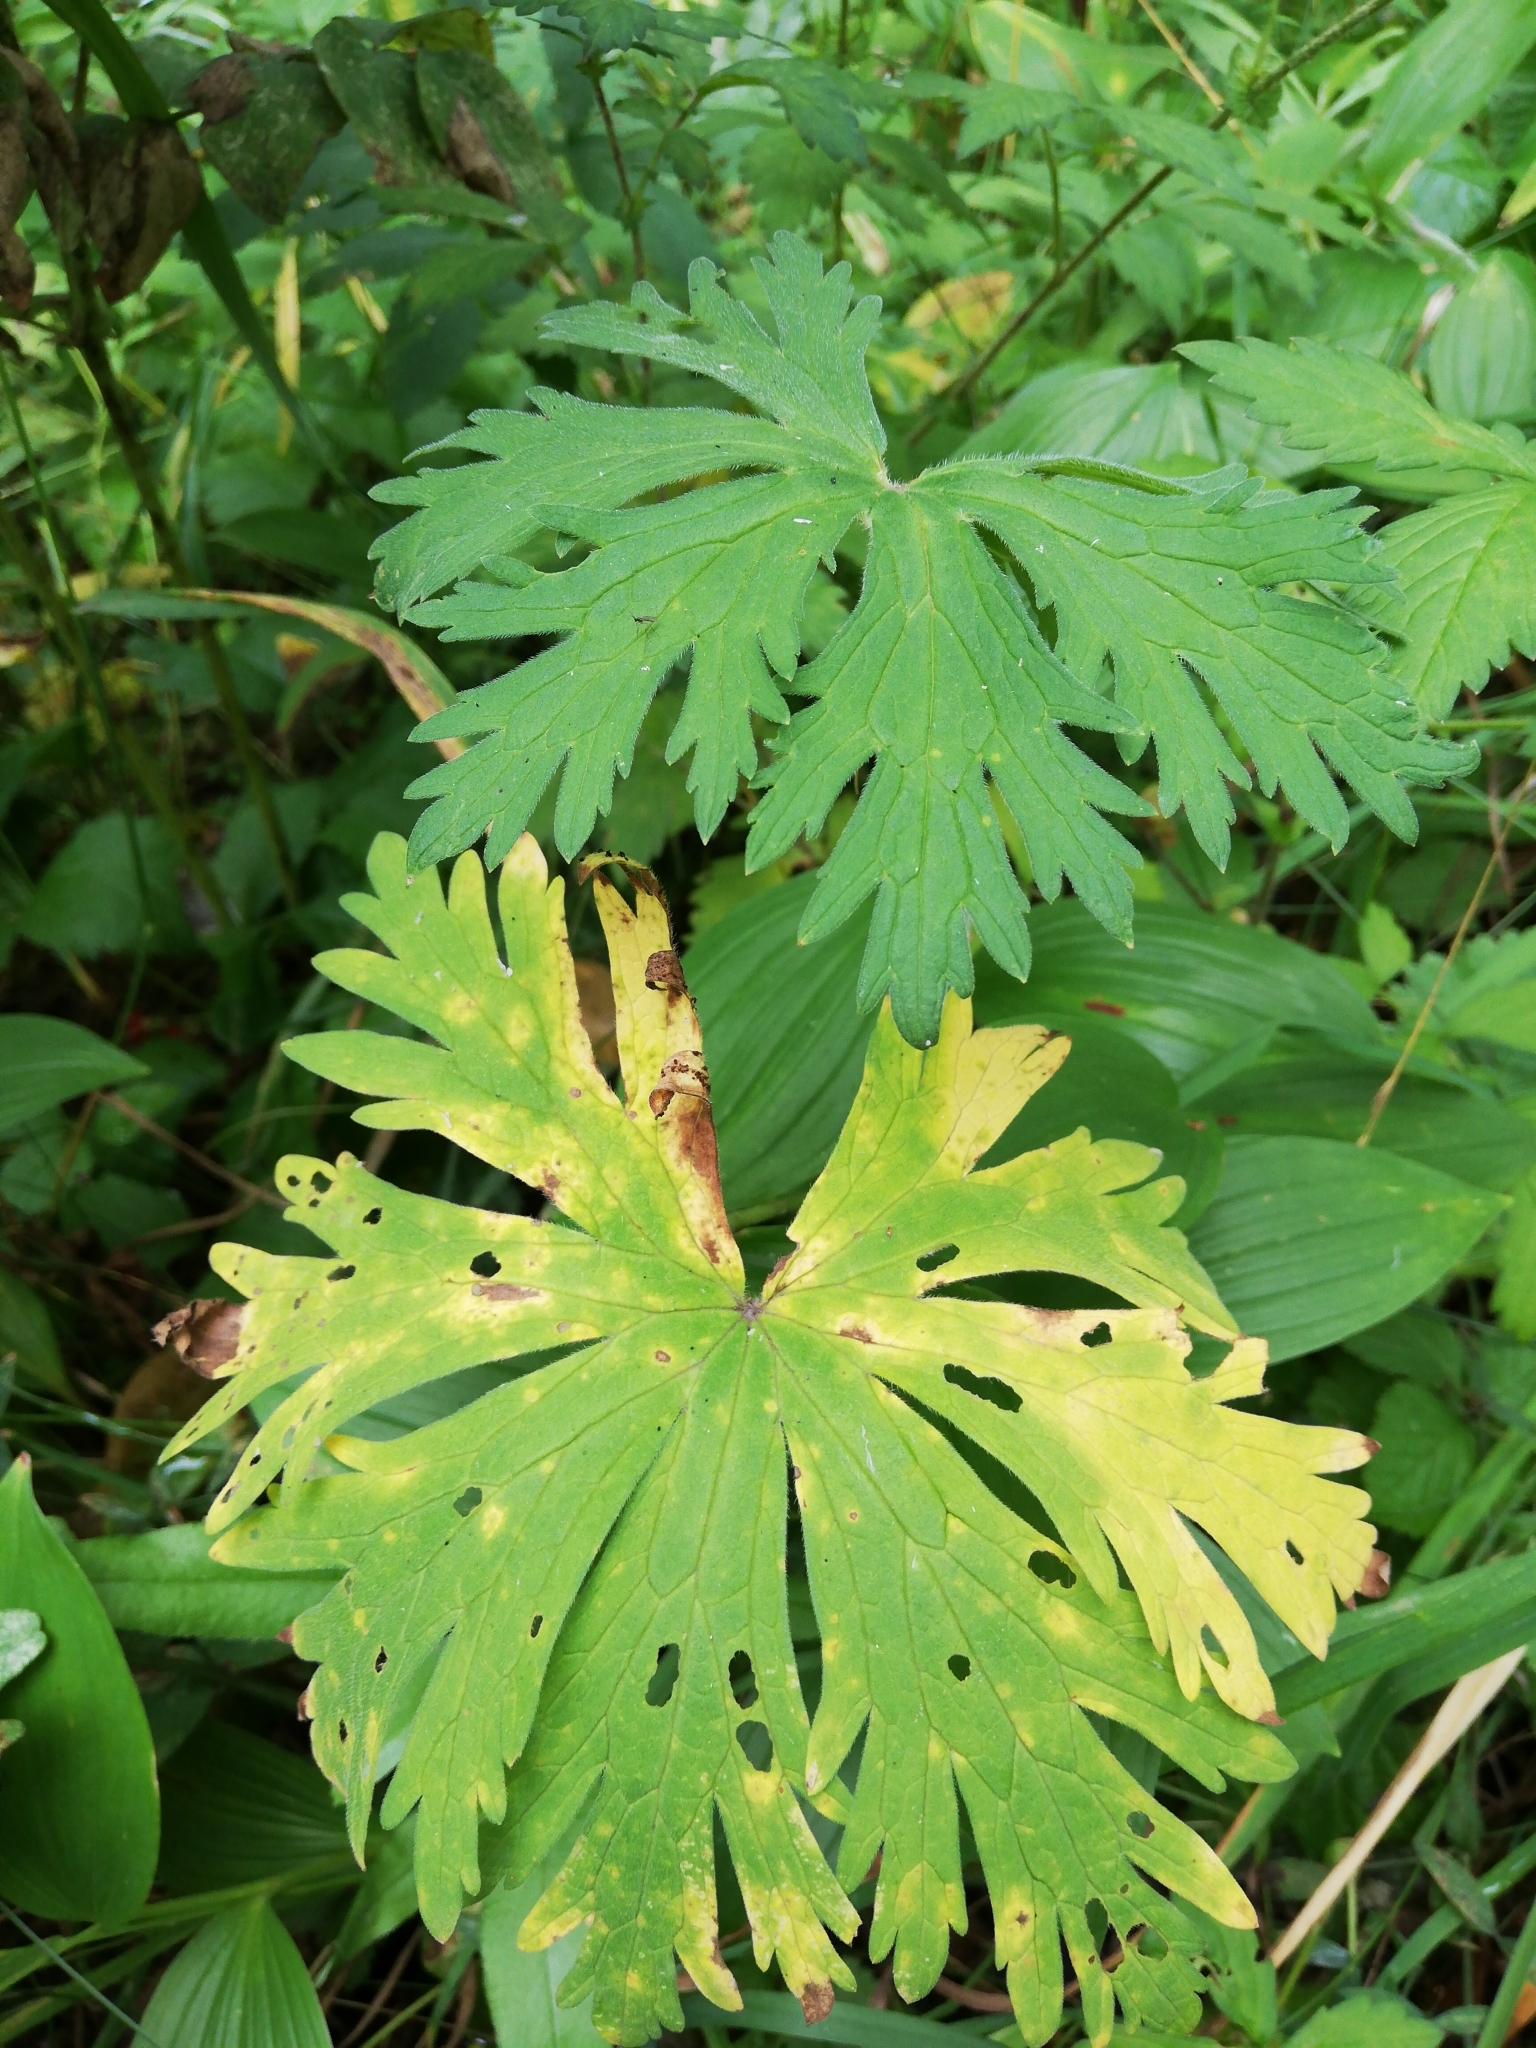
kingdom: Plantae
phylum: Tracheophyta
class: Magnoliopsida
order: Ranunculales
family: Ranunculaceae
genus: Aconitum
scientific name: Aconitum septentrionale
